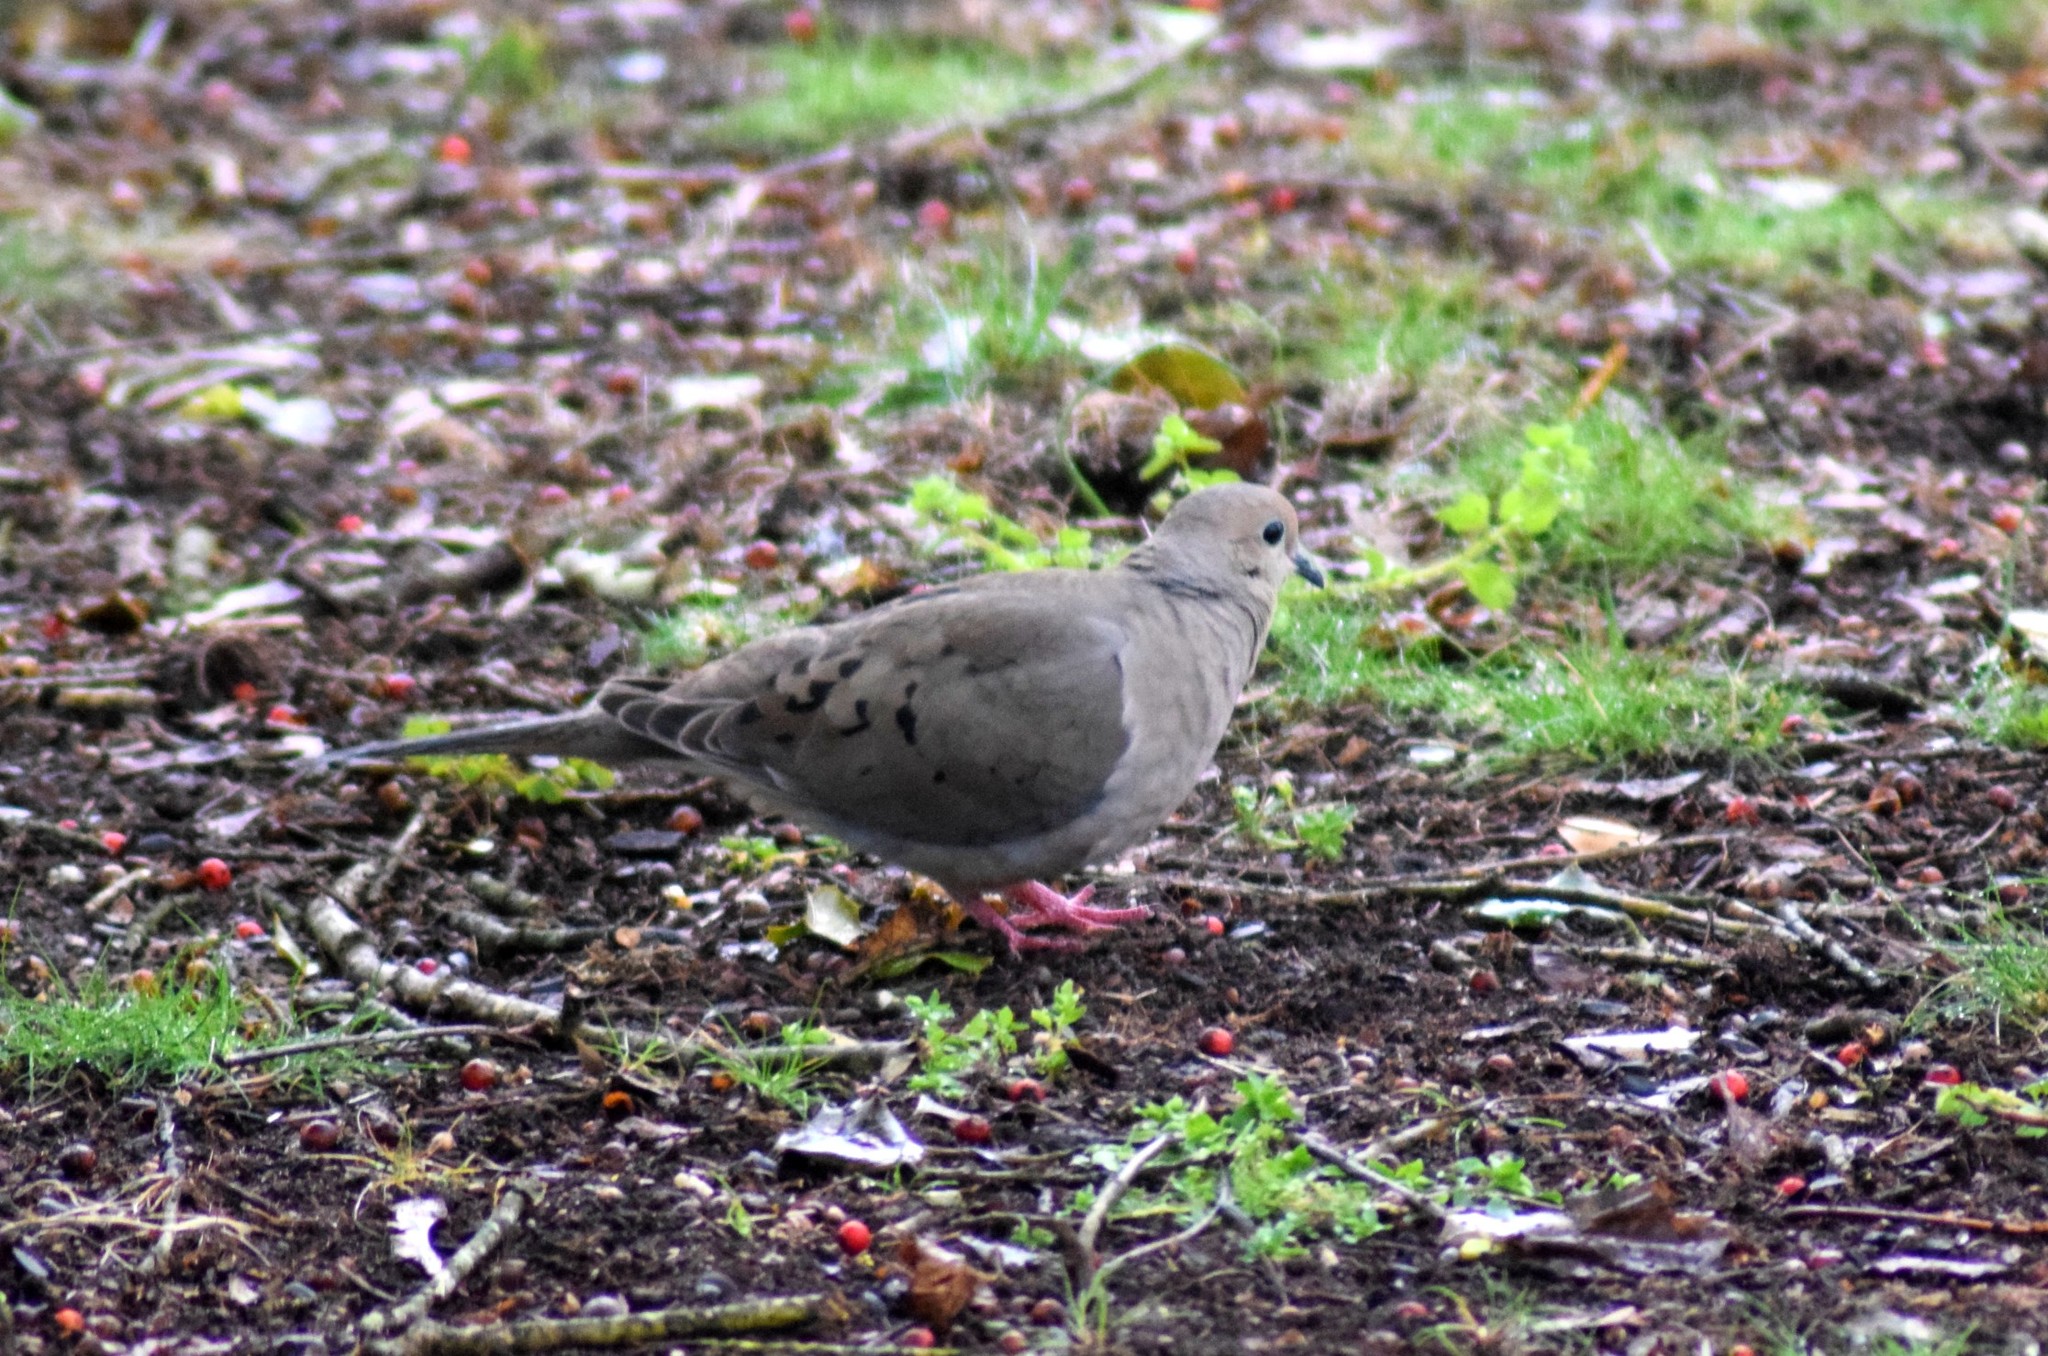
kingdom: Animalia
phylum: Chordata
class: Aves
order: Columbiformes
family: Columbidae
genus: Zenaida
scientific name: Zenaida macroura
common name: Mourning dove
